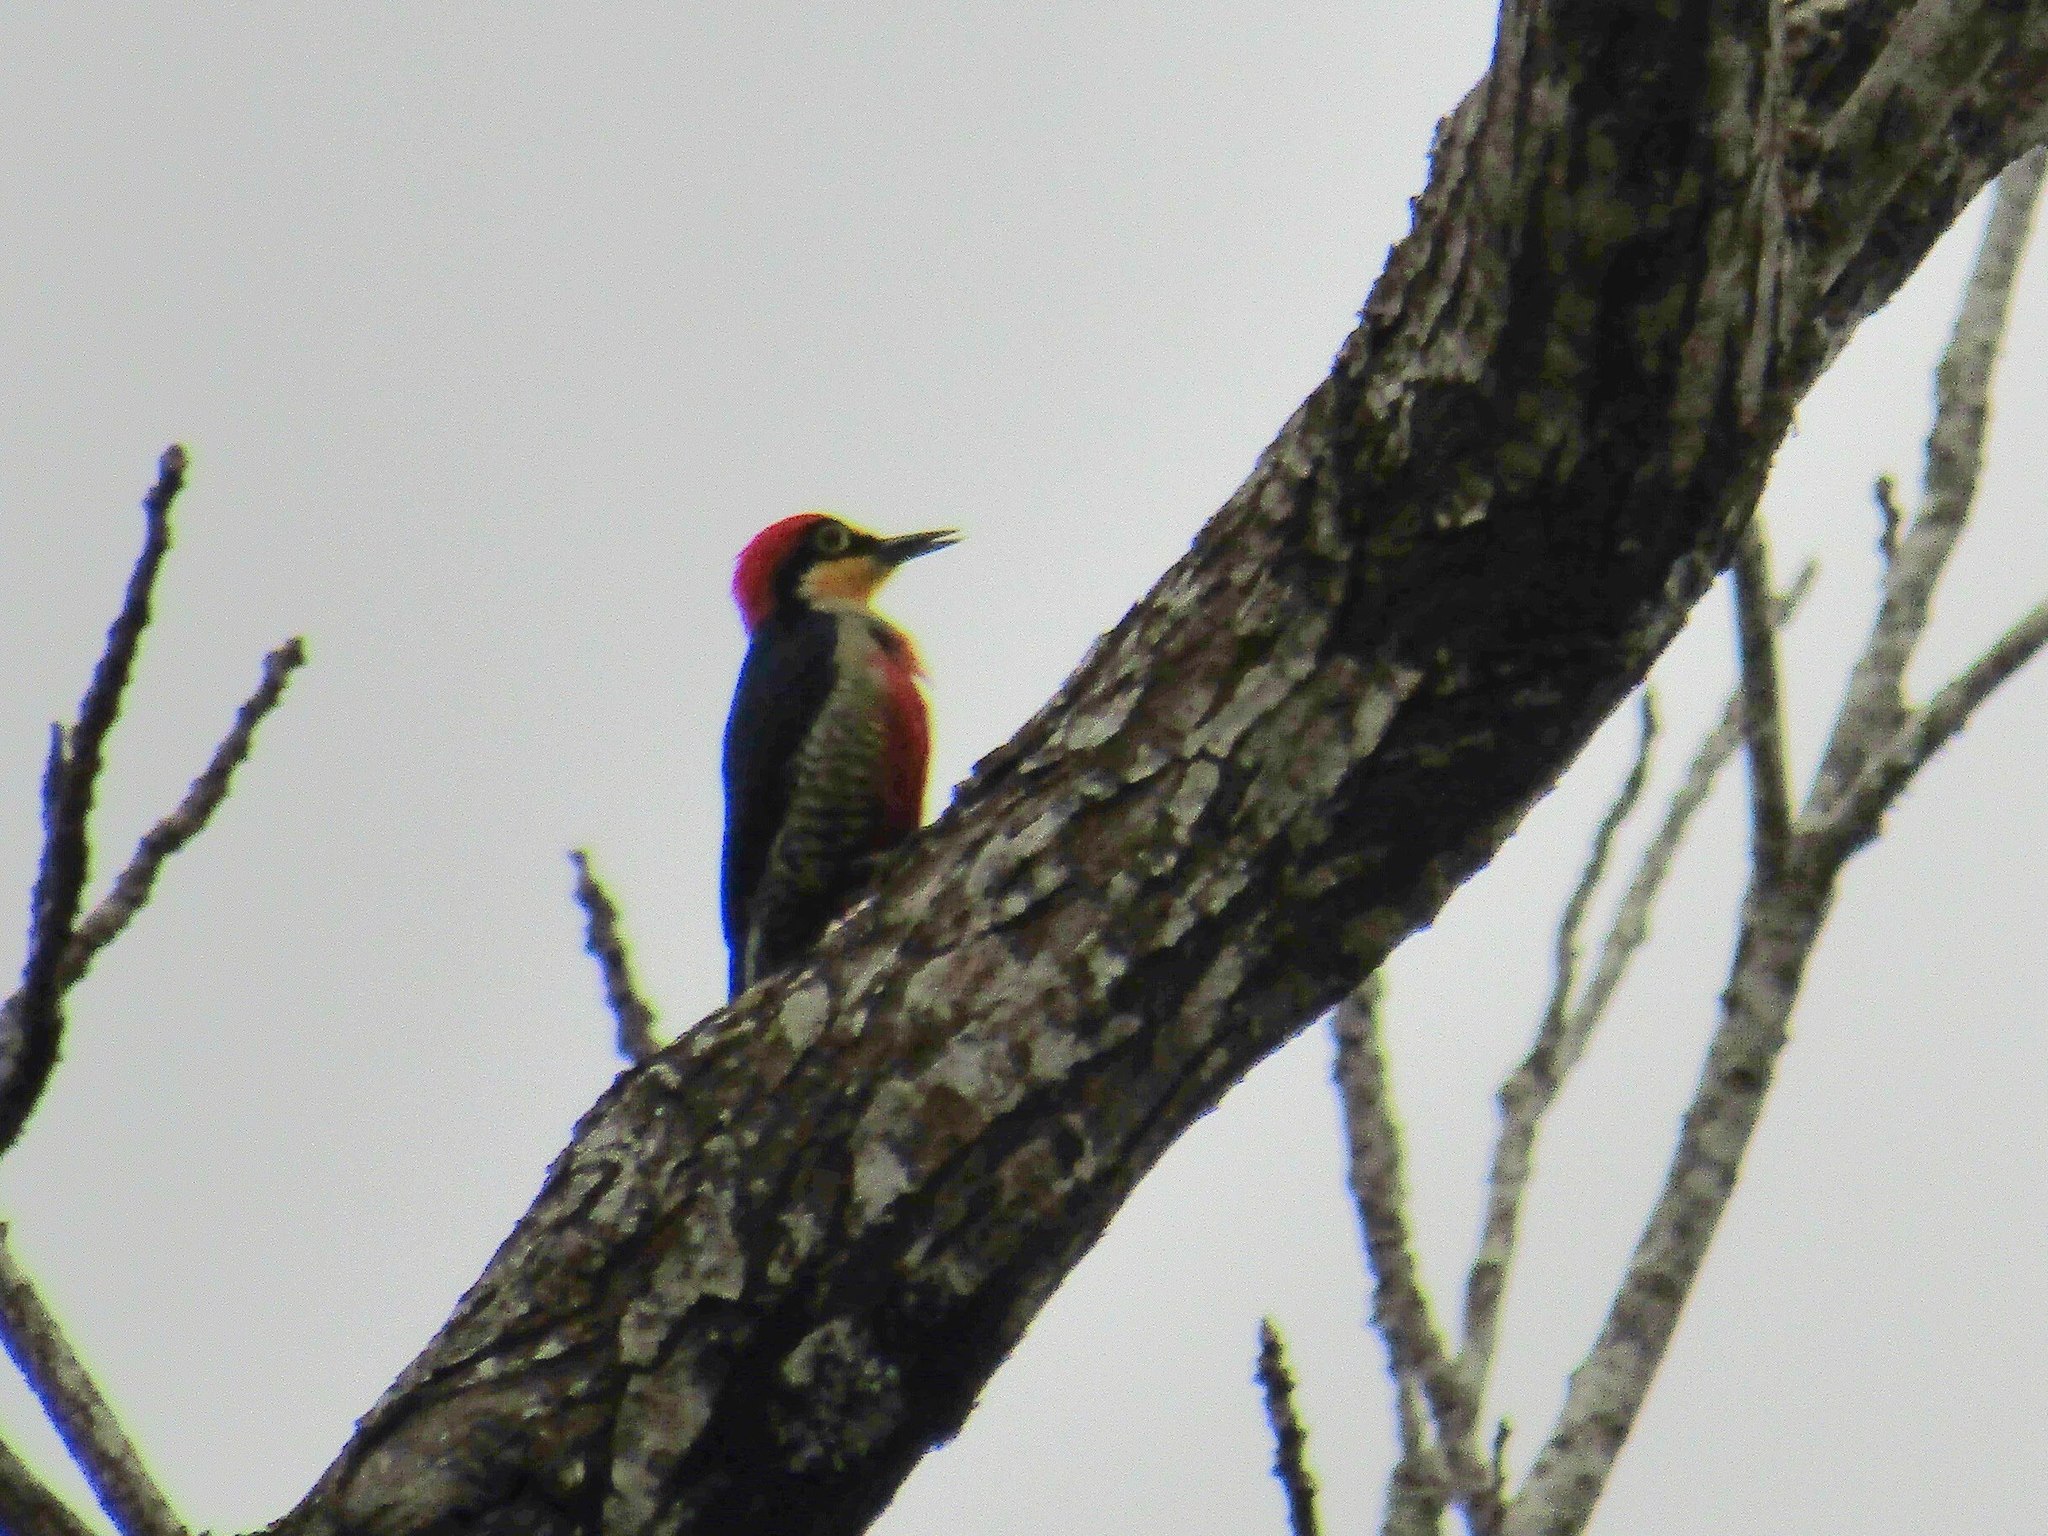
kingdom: Animalia
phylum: Chordata
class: Aves
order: Piciformes
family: Picidae
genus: Melanerpes
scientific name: Melanerpes flavifrons
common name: Yellow-fronted woodpecker
